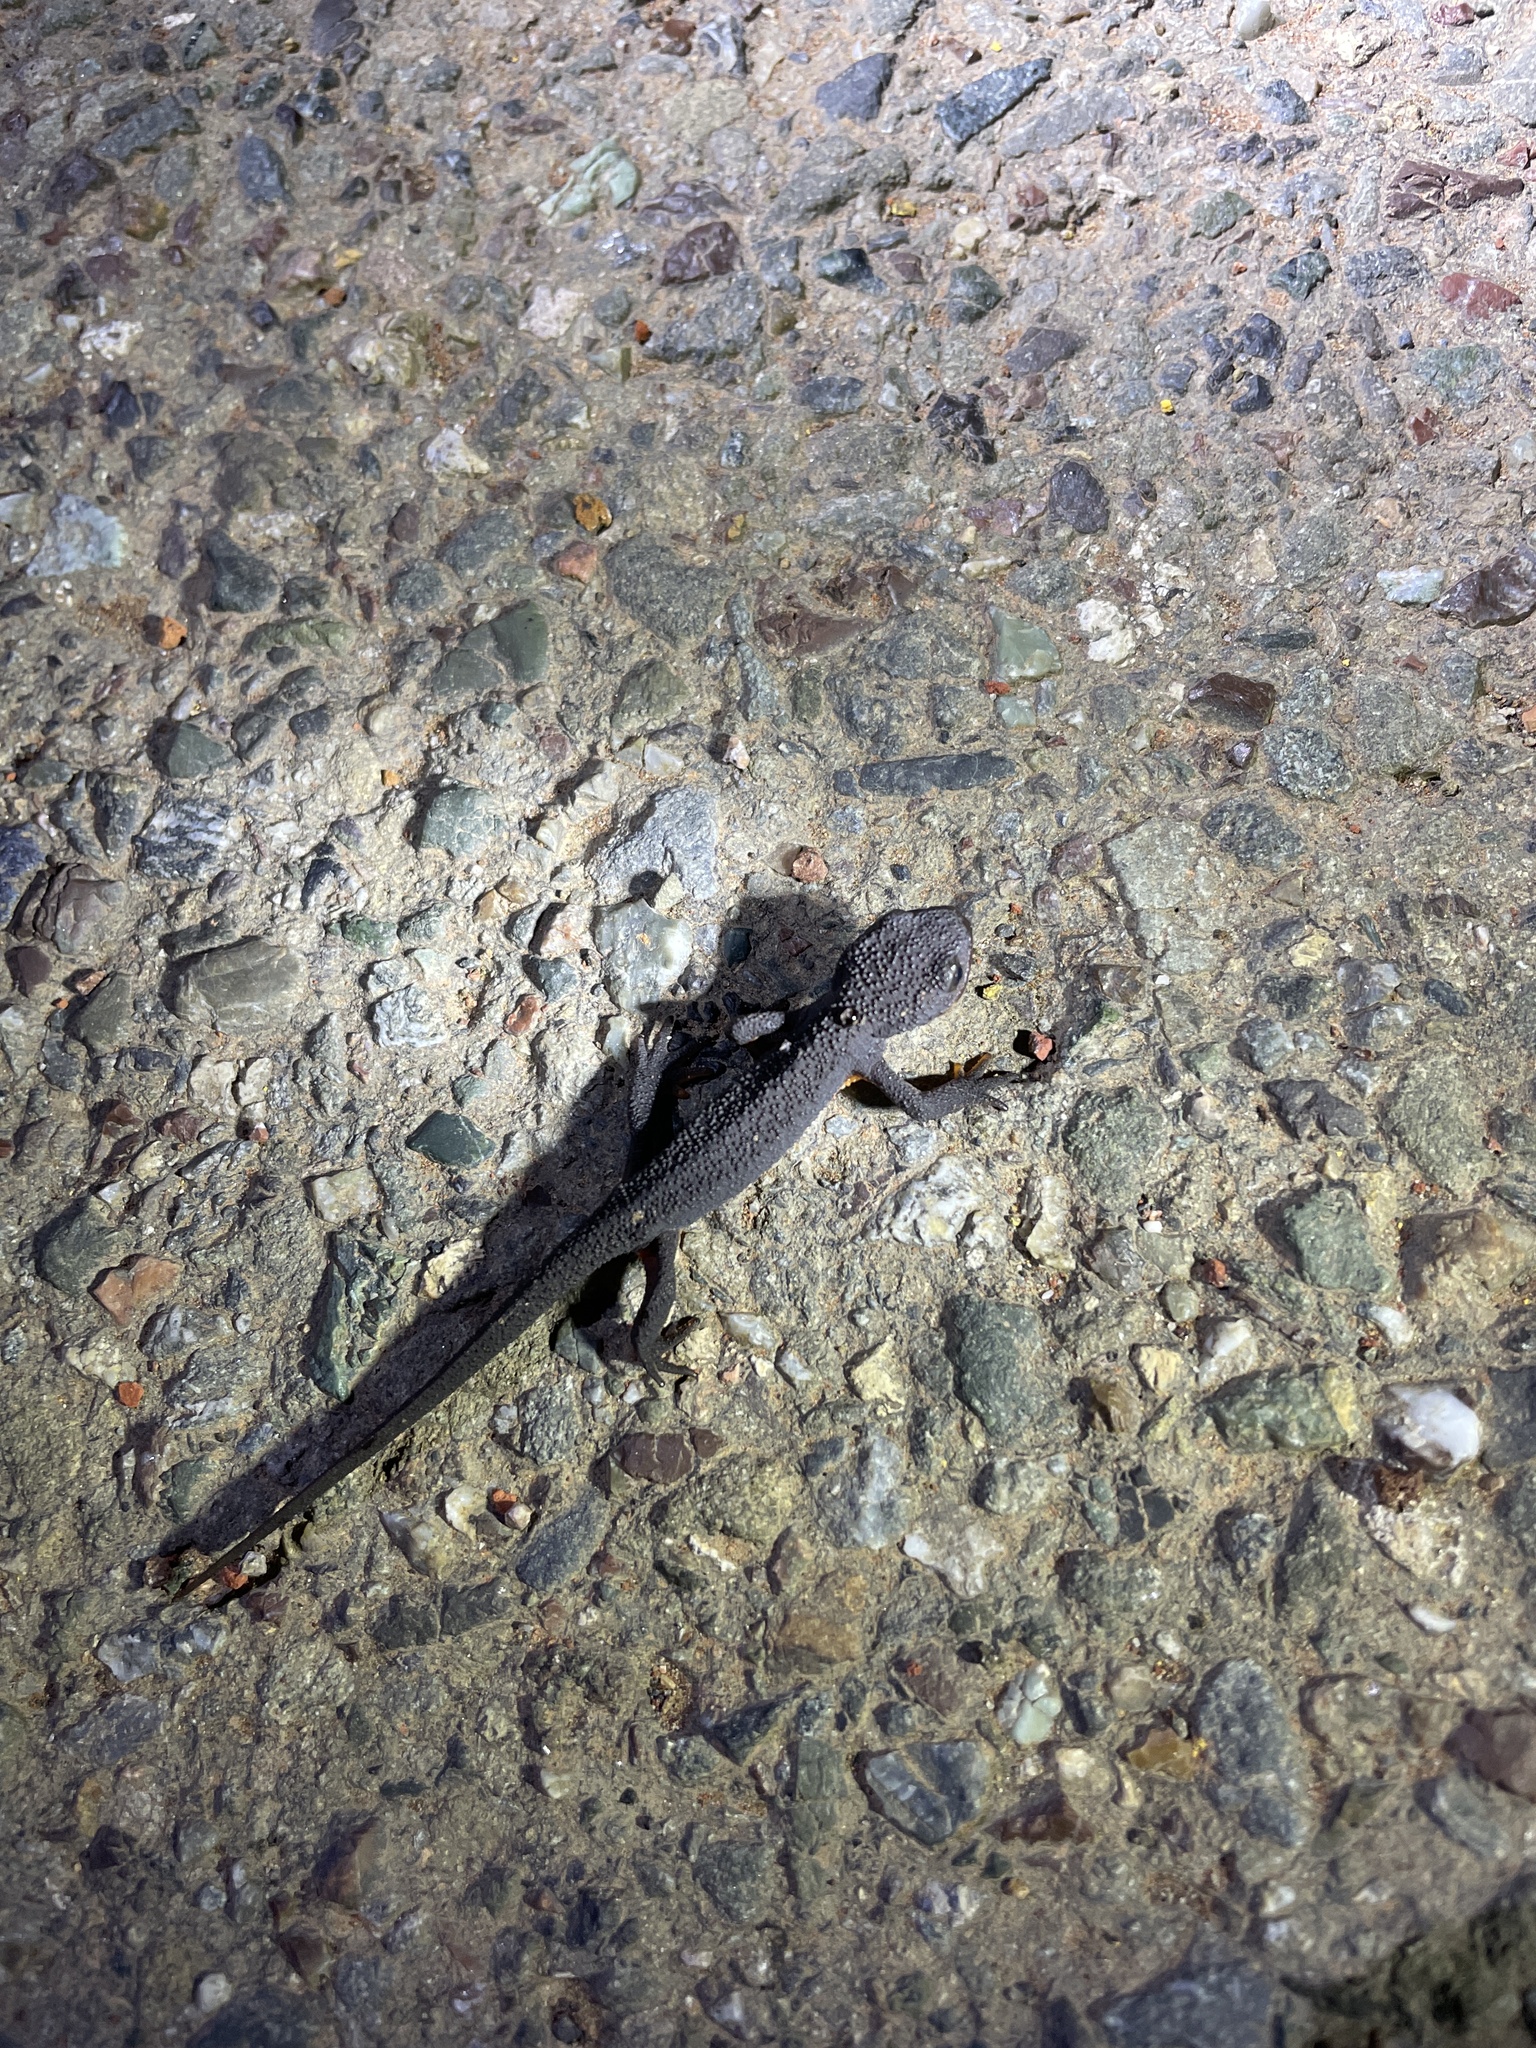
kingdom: Animalia
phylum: Chordata
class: Amphibia
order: Caudata
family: Salamandridae
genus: Taricha
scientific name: Taricha granulosa
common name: Roughskin newt
